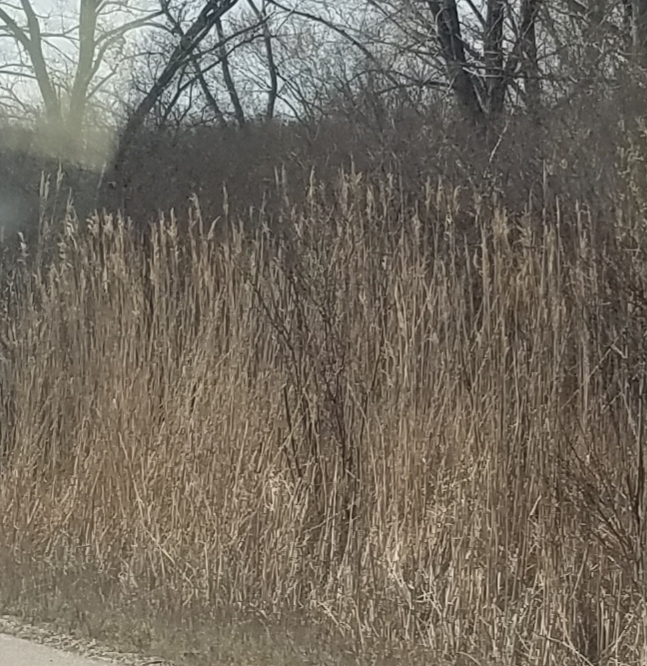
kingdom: Plantae
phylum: Tracheophyta
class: Liliopsida
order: Poales
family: Poaceae
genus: Phragmites
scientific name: Phragmites australis
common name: Common reed
